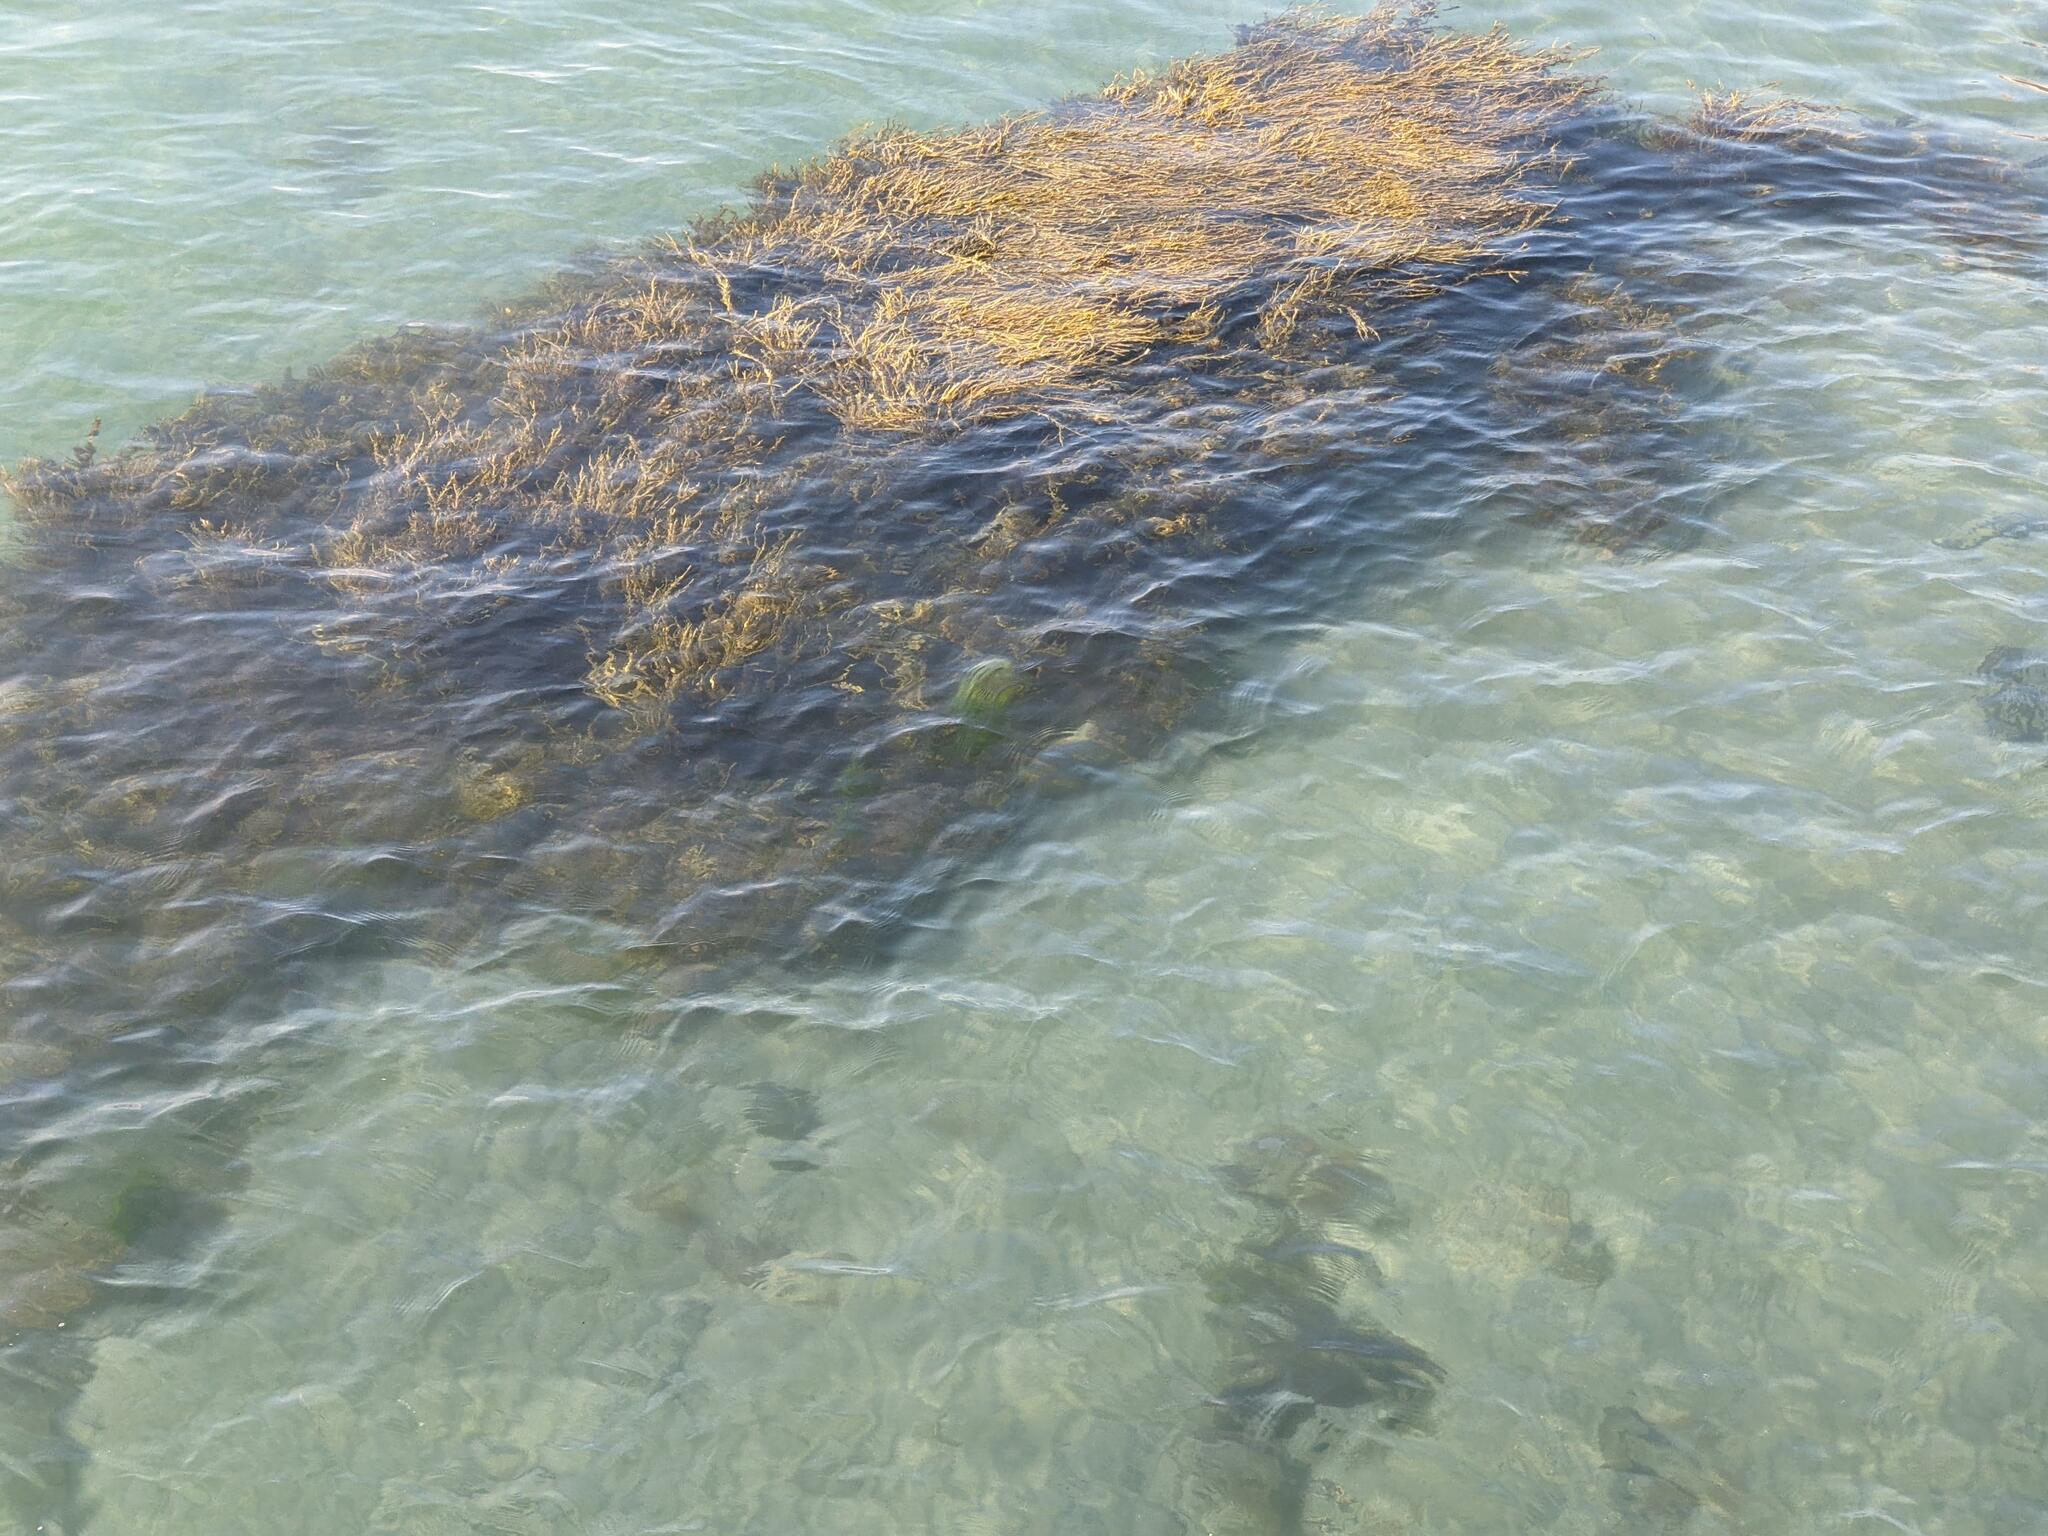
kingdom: Chromista
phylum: Ochrophyta
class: Phaeophyceae
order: Fucales
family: Fucaceae
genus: Ascophyllum
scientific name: Ascophyllum nodosum
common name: Knotted wrack
